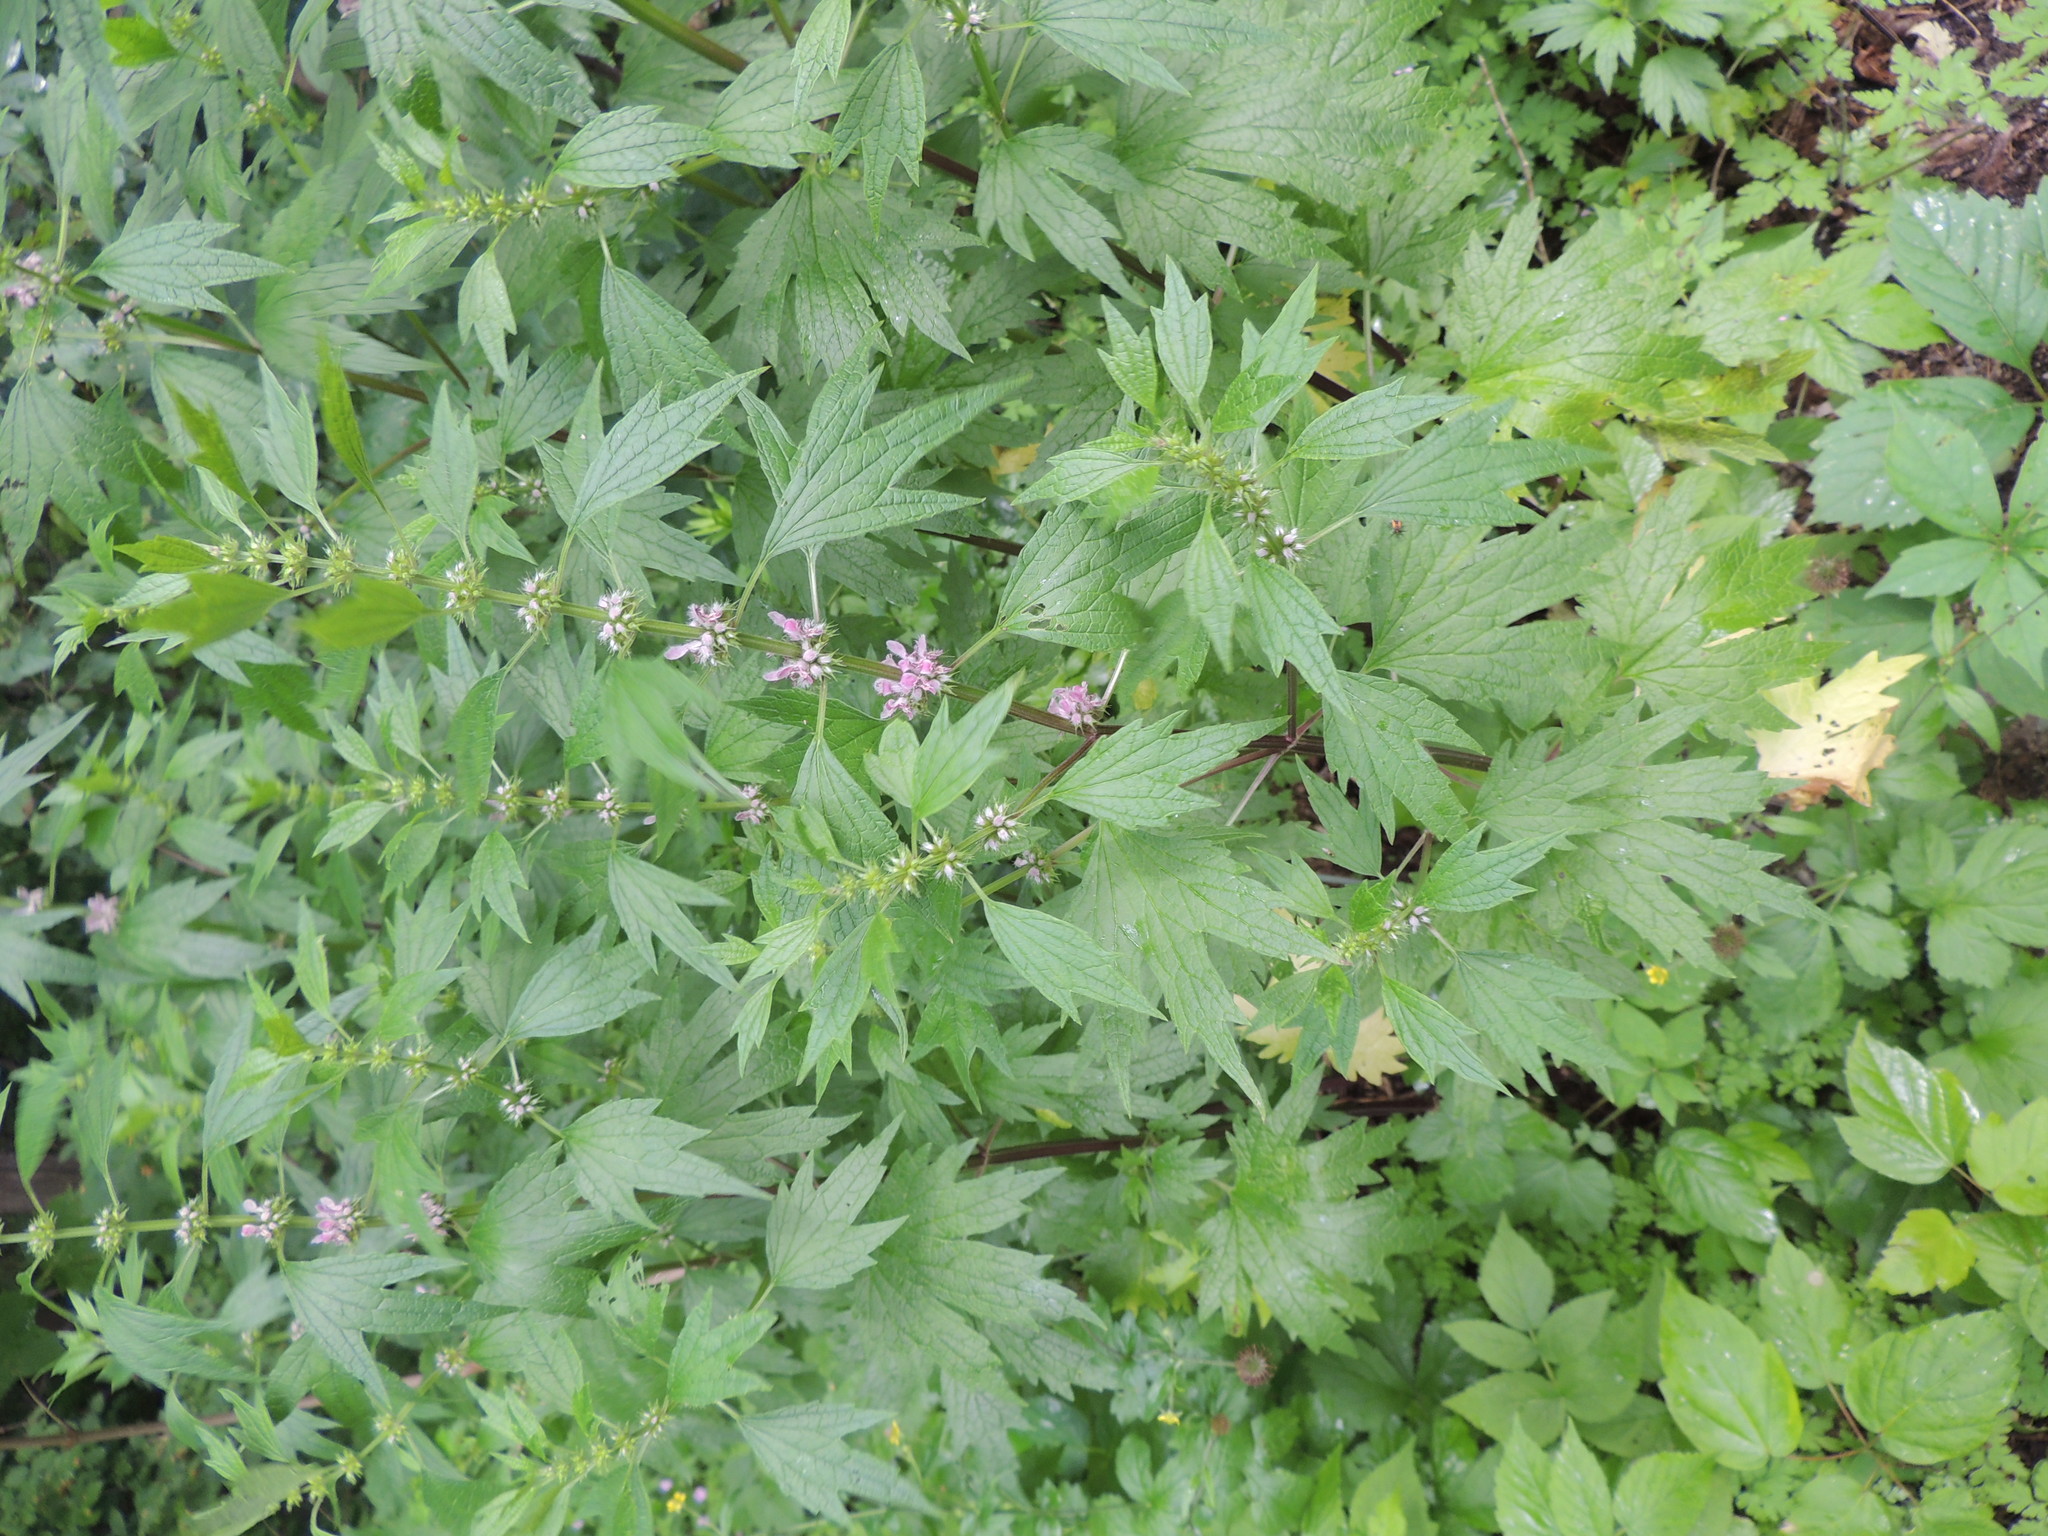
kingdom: Plantae
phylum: Tracheophyta
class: Magnoliopsida
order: Lamiales
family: Lamiaceae
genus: Leonurus
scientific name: Leonurus cardiaca
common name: Motherwort
